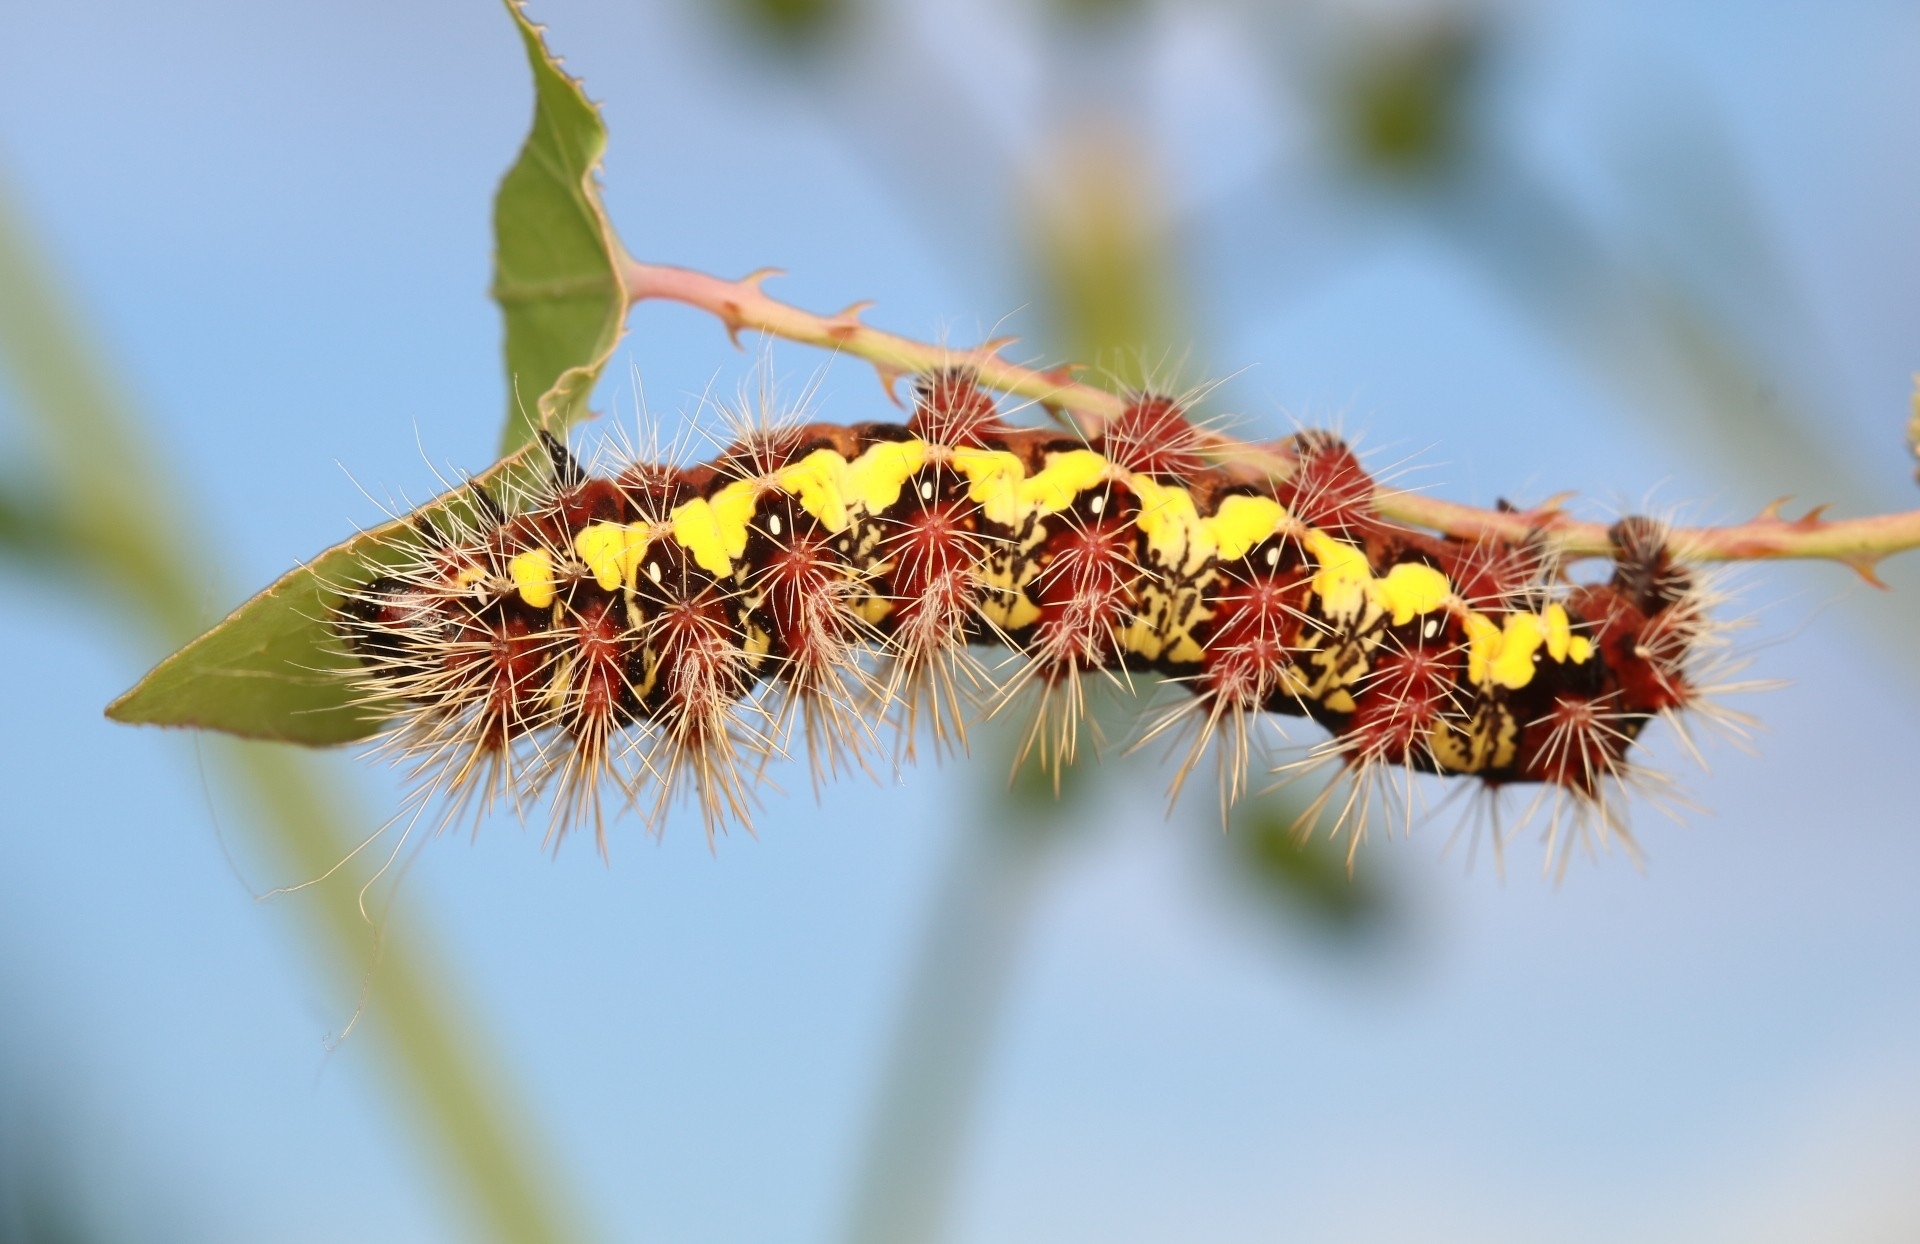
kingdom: Animalia
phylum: Arthropoda
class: Insecta
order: Lepidoptera
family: Noctuidae
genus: Acronicta
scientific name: Acronicta oblinita
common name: Smeared dagger
